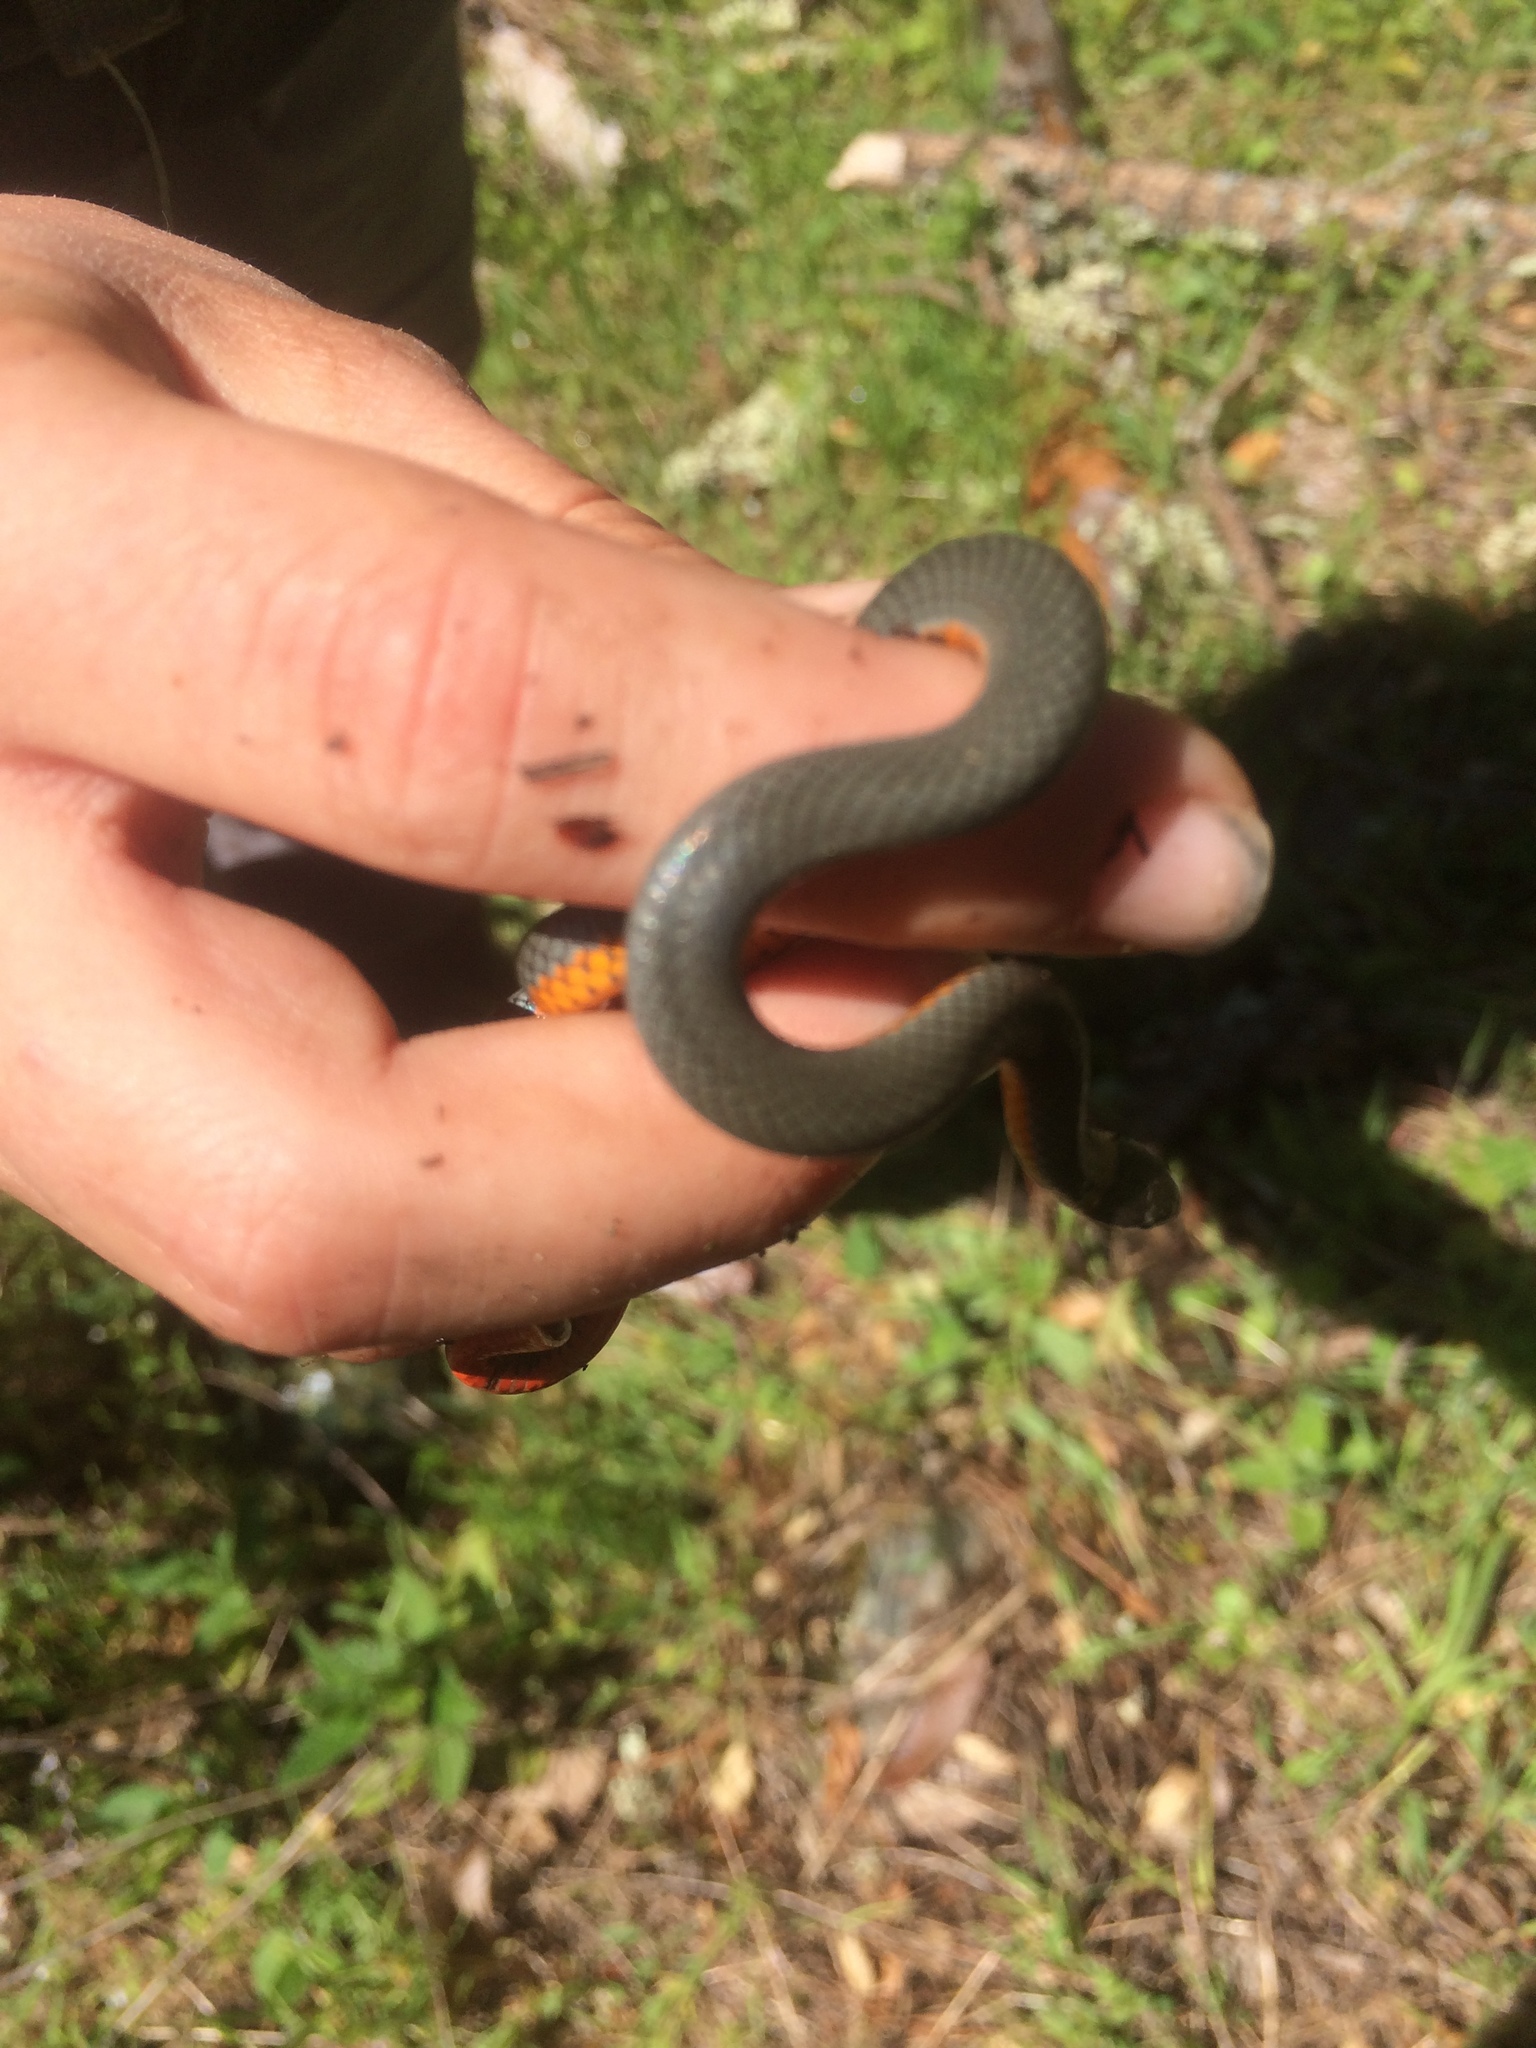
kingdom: Animalia
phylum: Chordata
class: Squamata
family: Colubridae
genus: Diadophis
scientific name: Diadophis punctatus
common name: Ringneck snake
